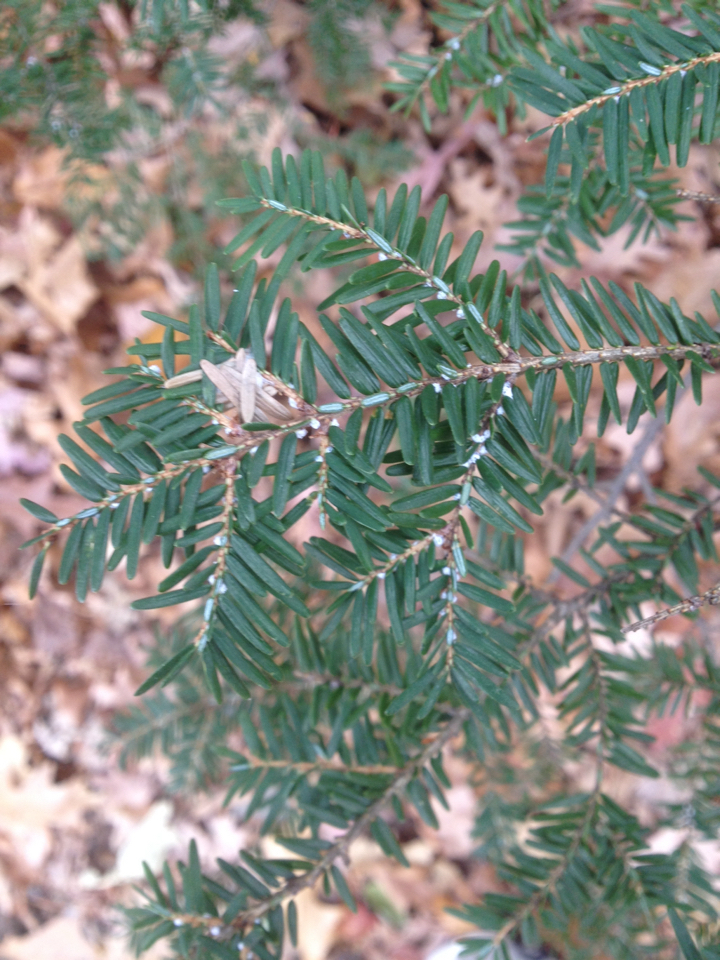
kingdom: Plantae
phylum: Tracheophyta
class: Pinopsida
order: Pinales
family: Pinaceae
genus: Tsuga
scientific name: Tsuga canadensis
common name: Eastern hemlock
